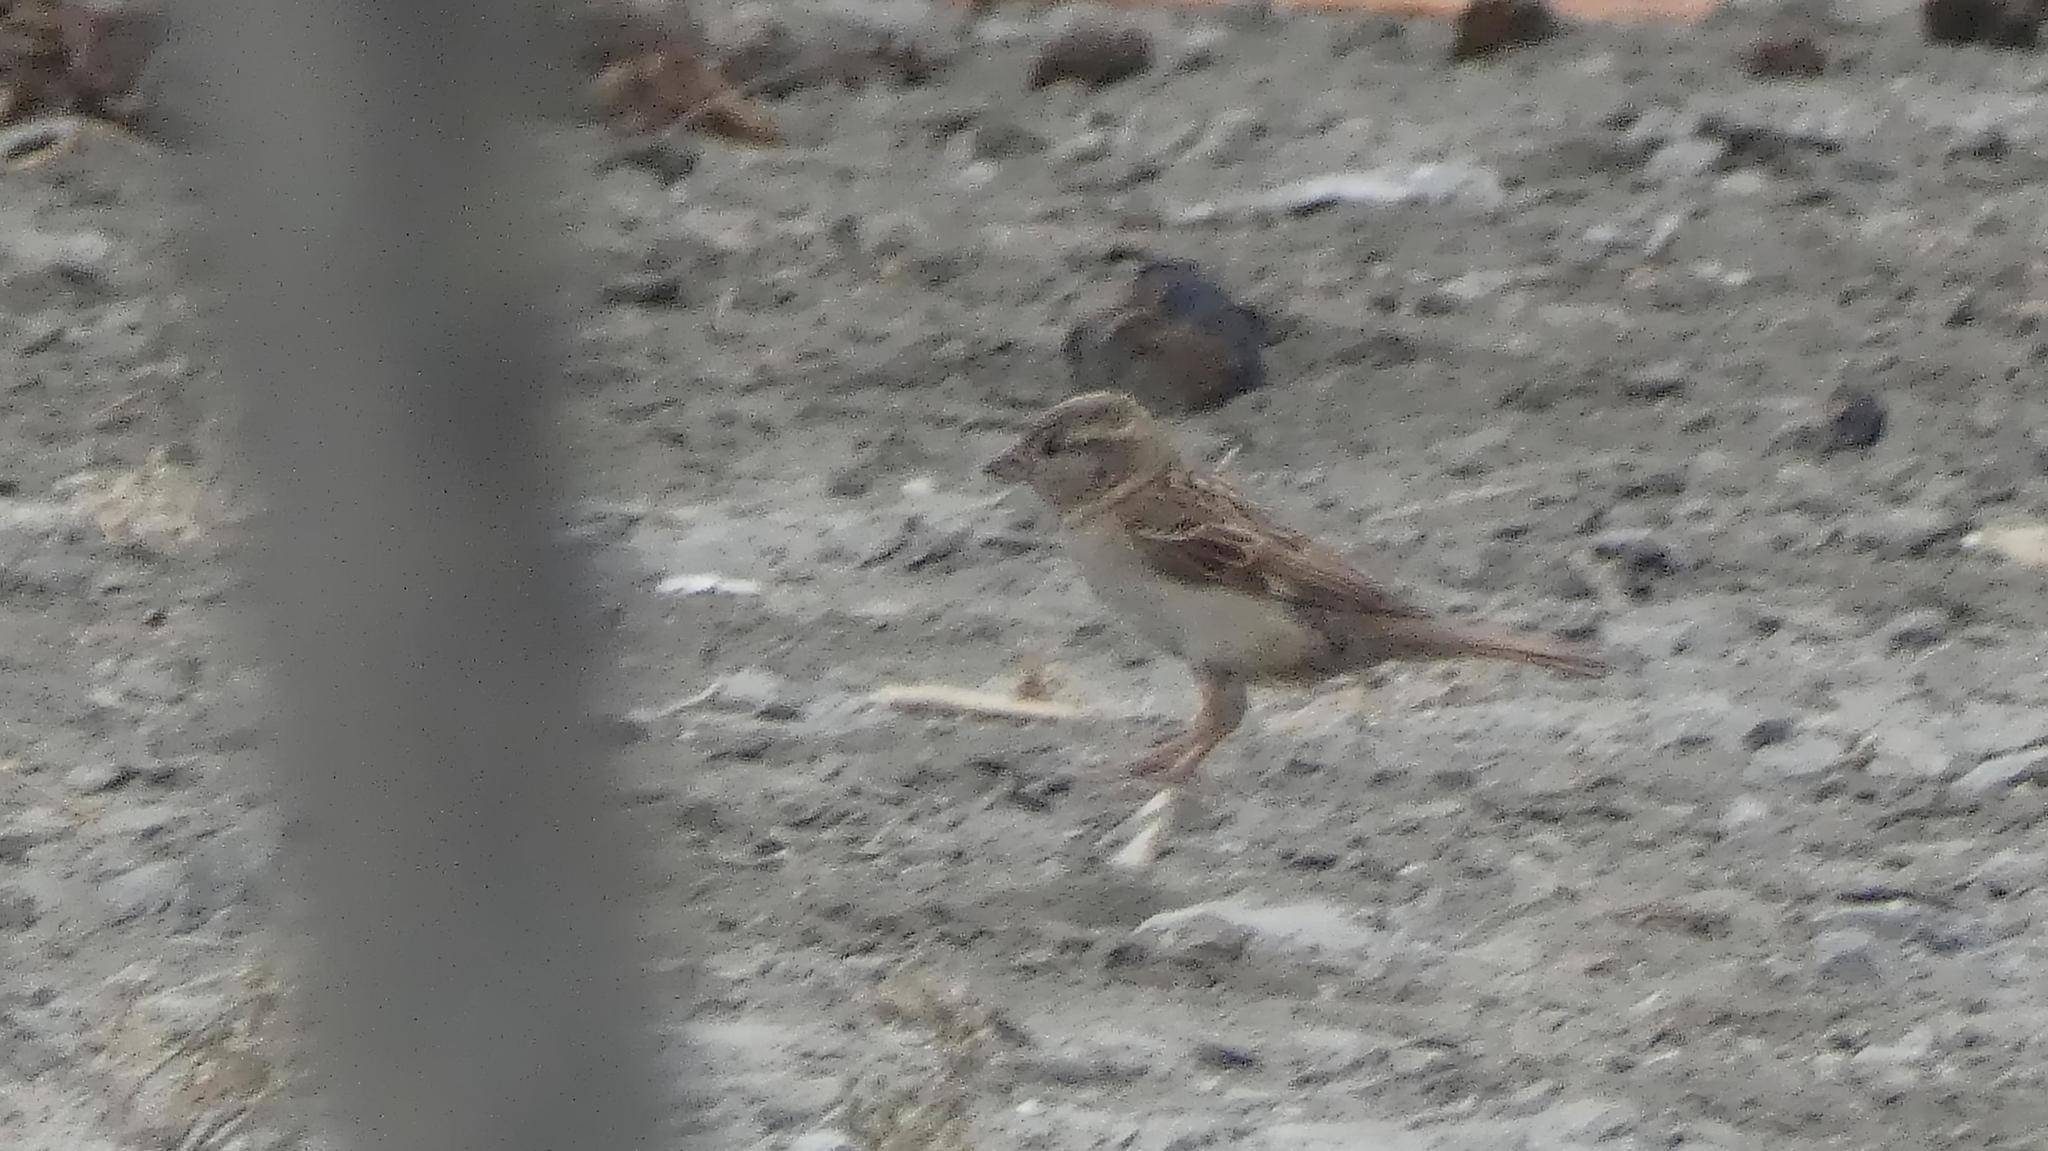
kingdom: Animalia
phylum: Chordata
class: Aves
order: Passeriformes
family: Passeridae
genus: Passer
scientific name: Passer domesticus
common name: House sparrow
